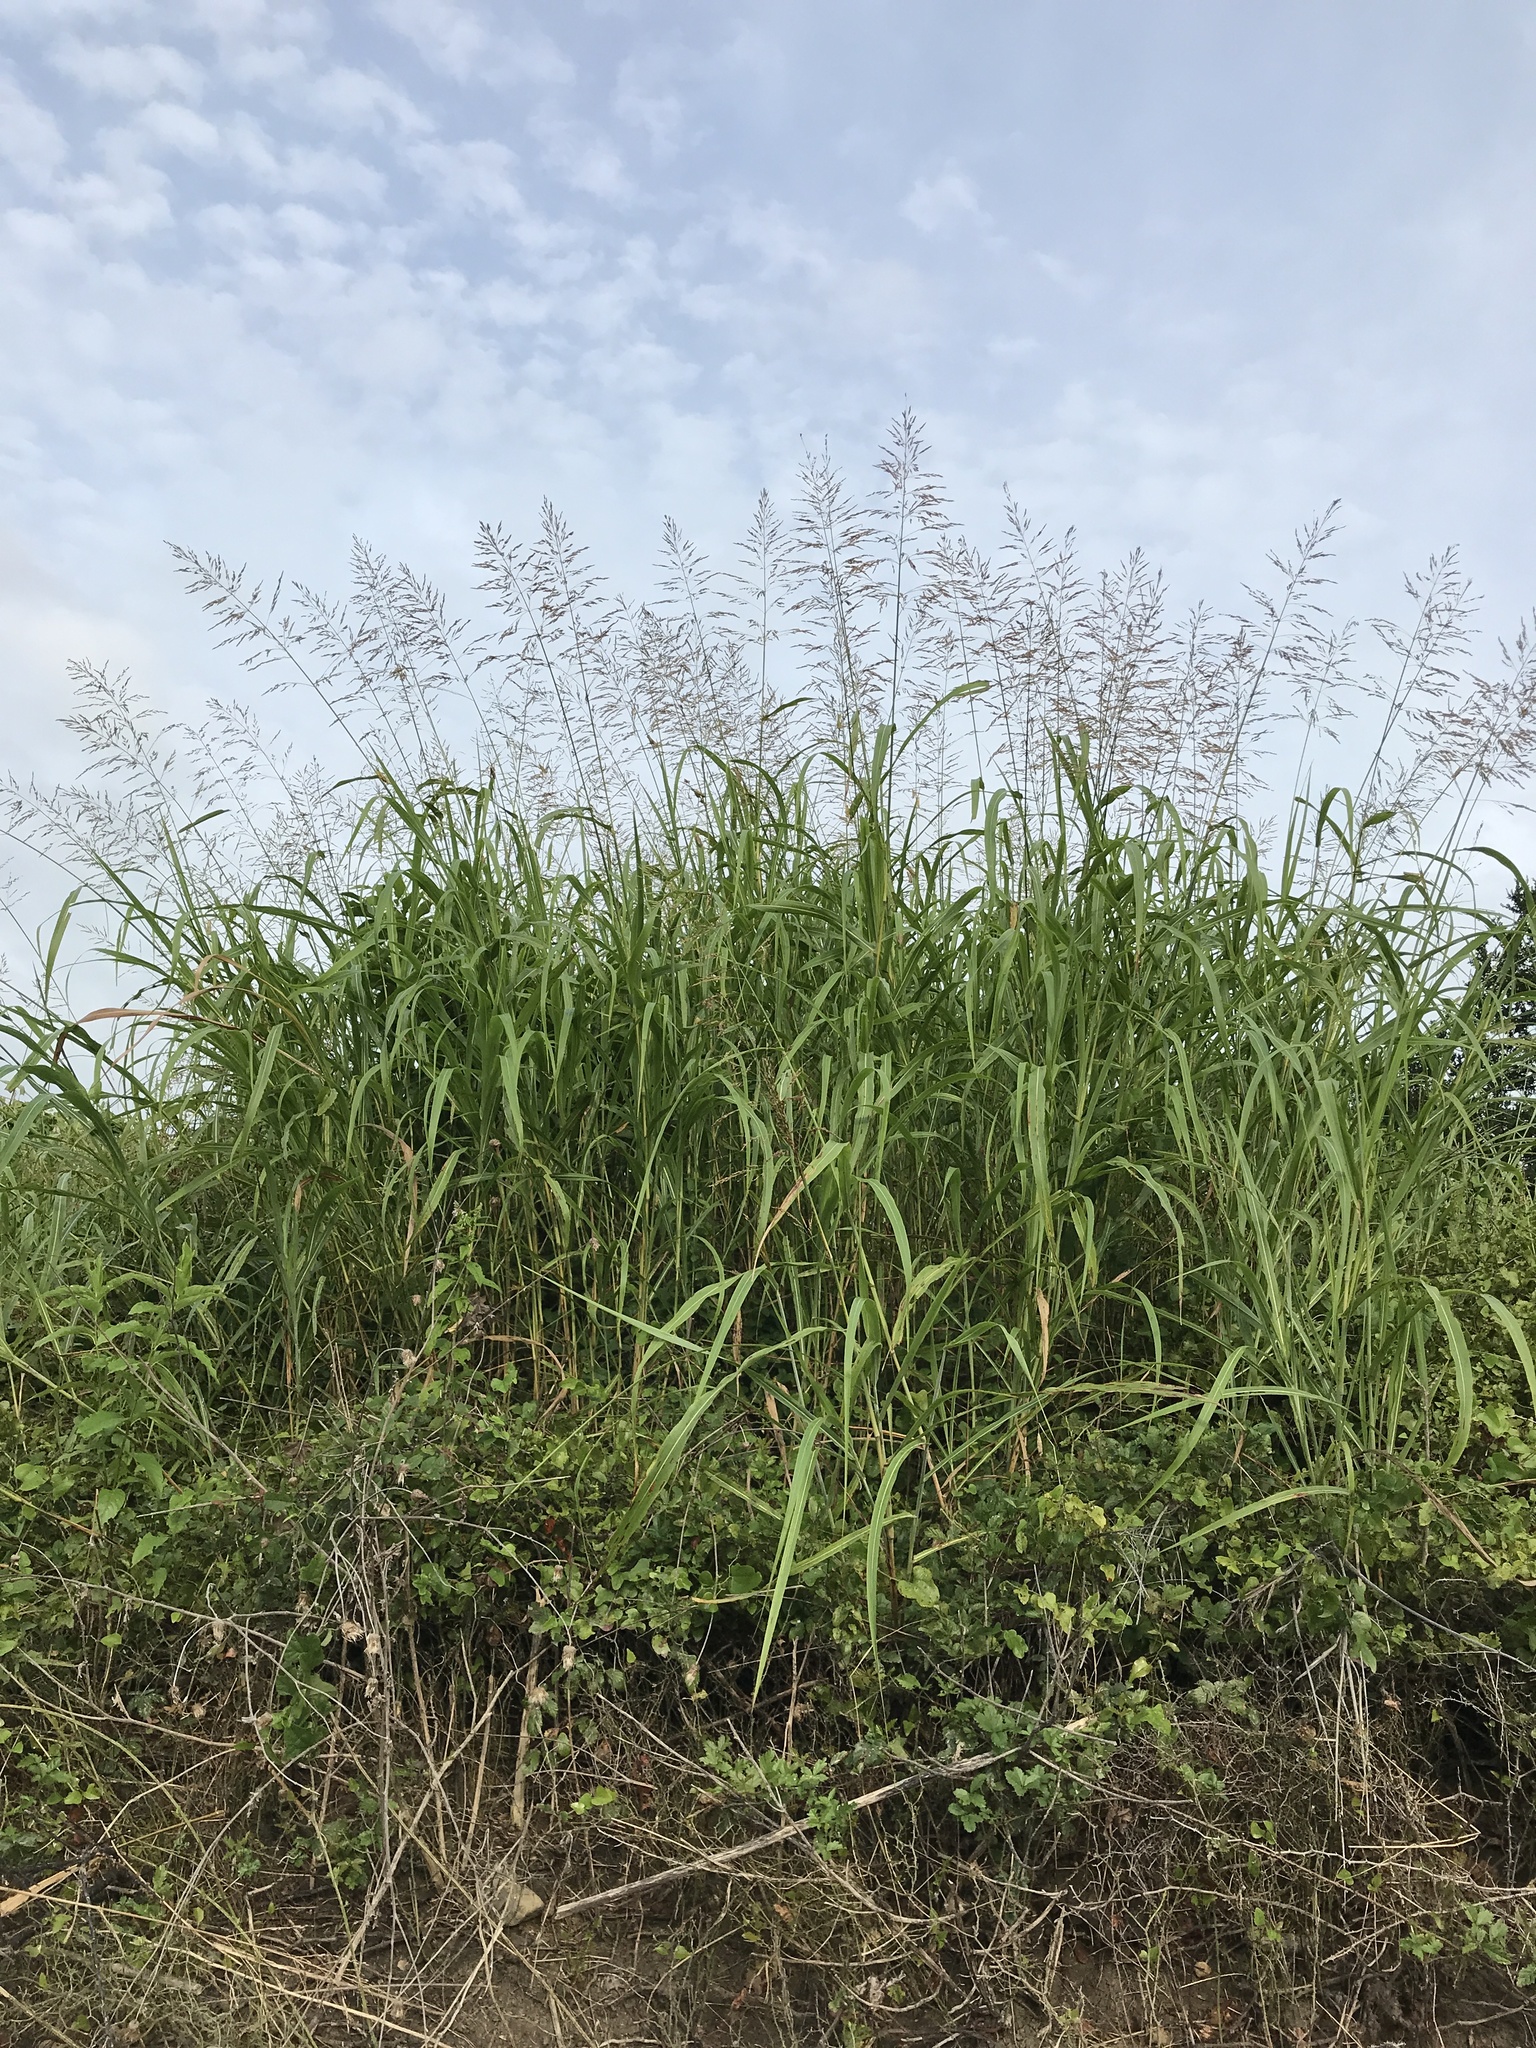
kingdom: Plantae
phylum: Tracheophyta
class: Liliopsida
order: Poales
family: Poaceae
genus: Sorghum
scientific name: Sorghum halepense
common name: Johnson-grass
